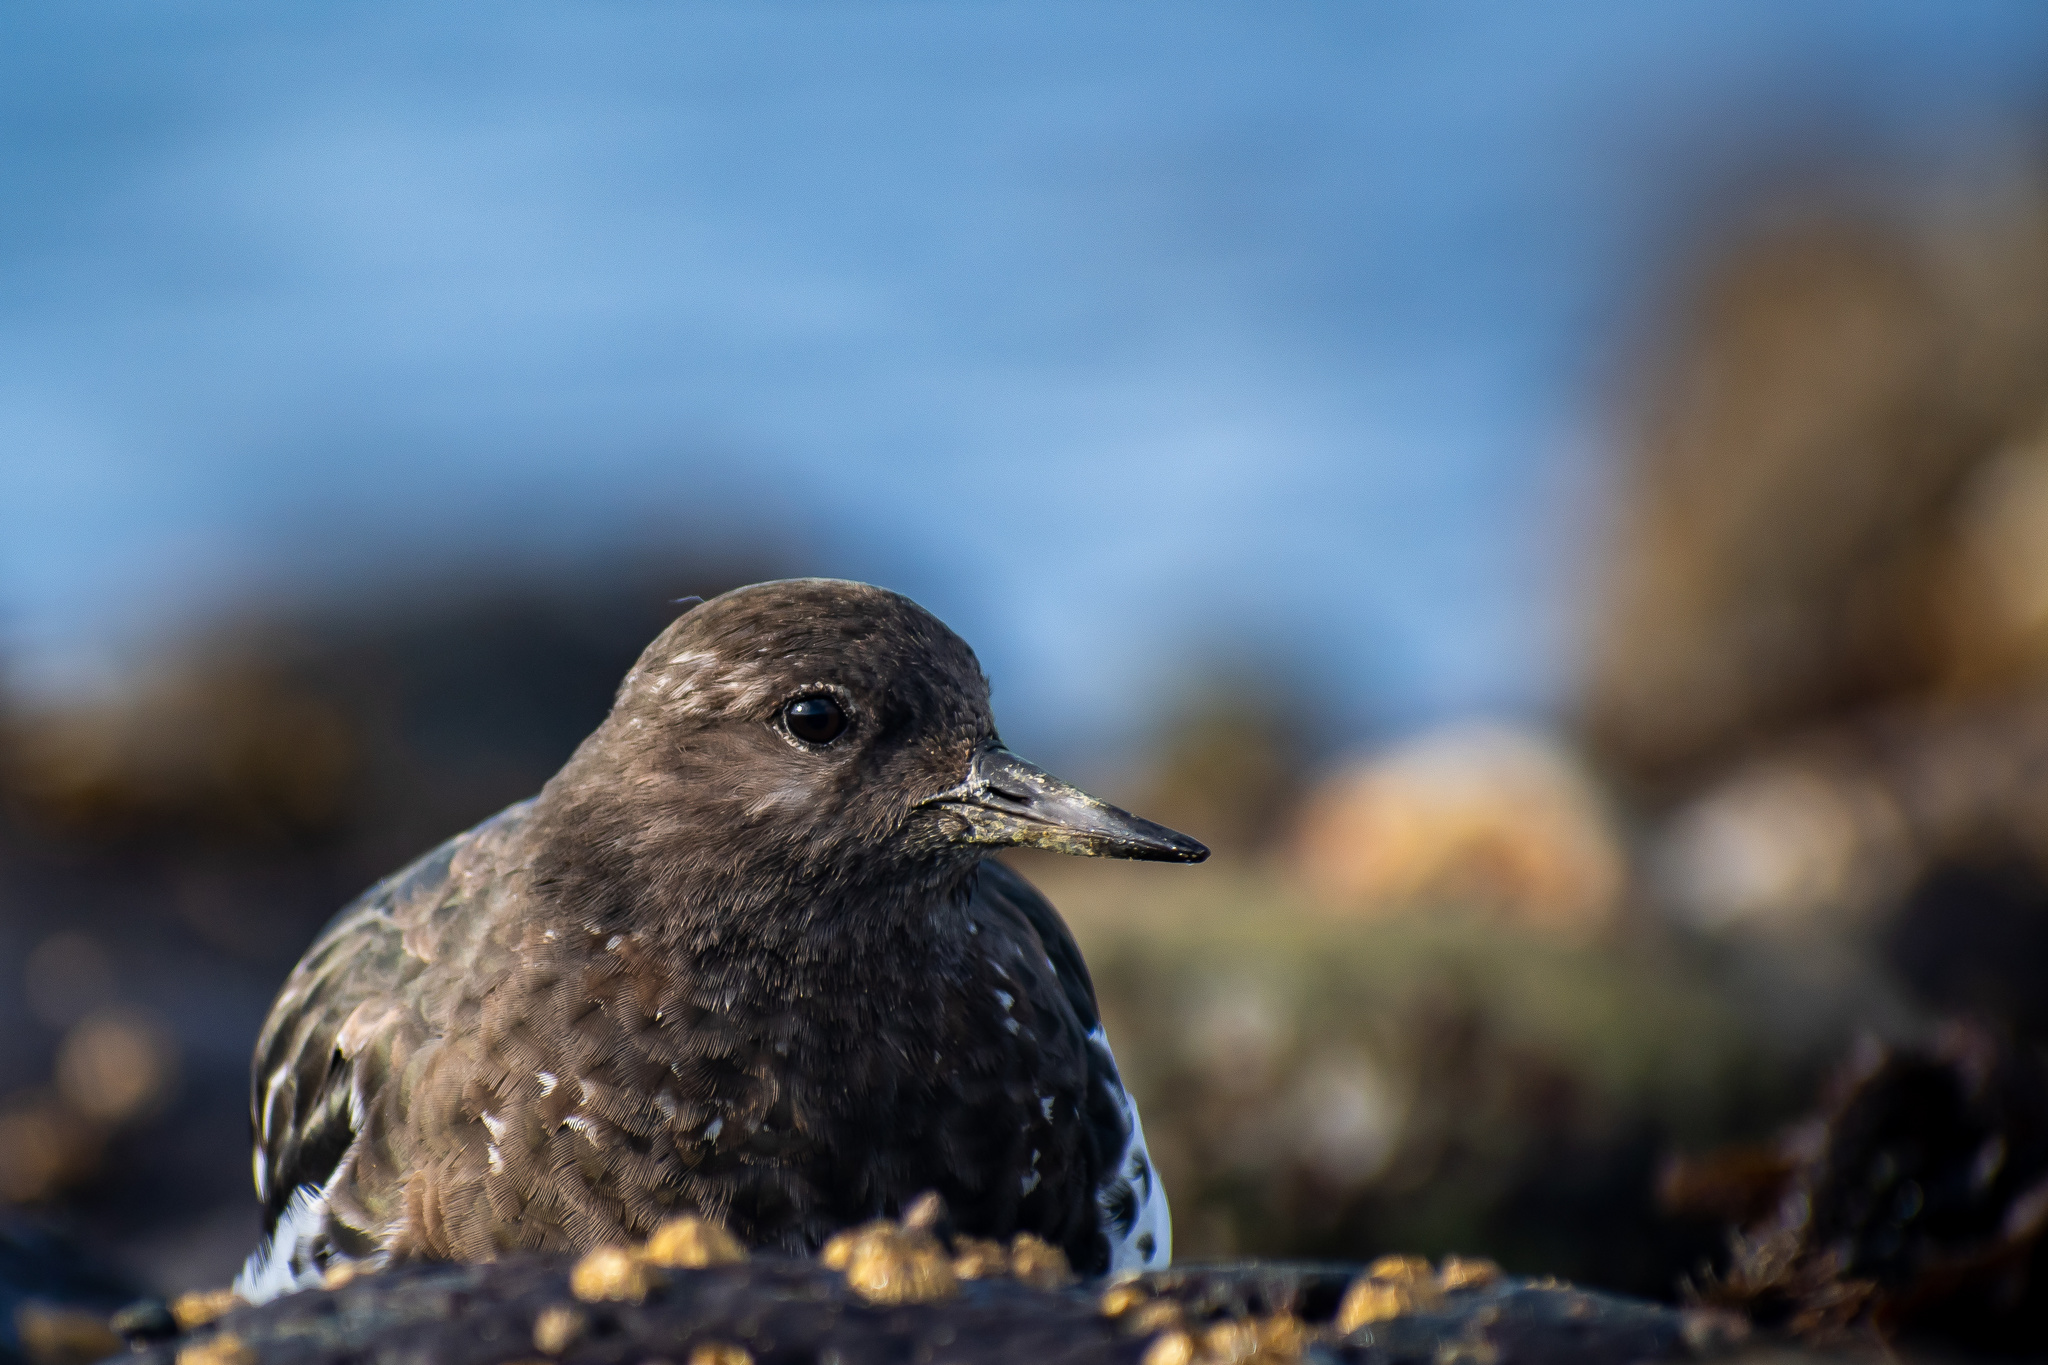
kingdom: Animalia
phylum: Chordata
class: Aves
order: Charadriiformes
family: Scolopacidae
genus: Arenaria
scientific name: Arenaria melanocephala
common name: Black turnstone
